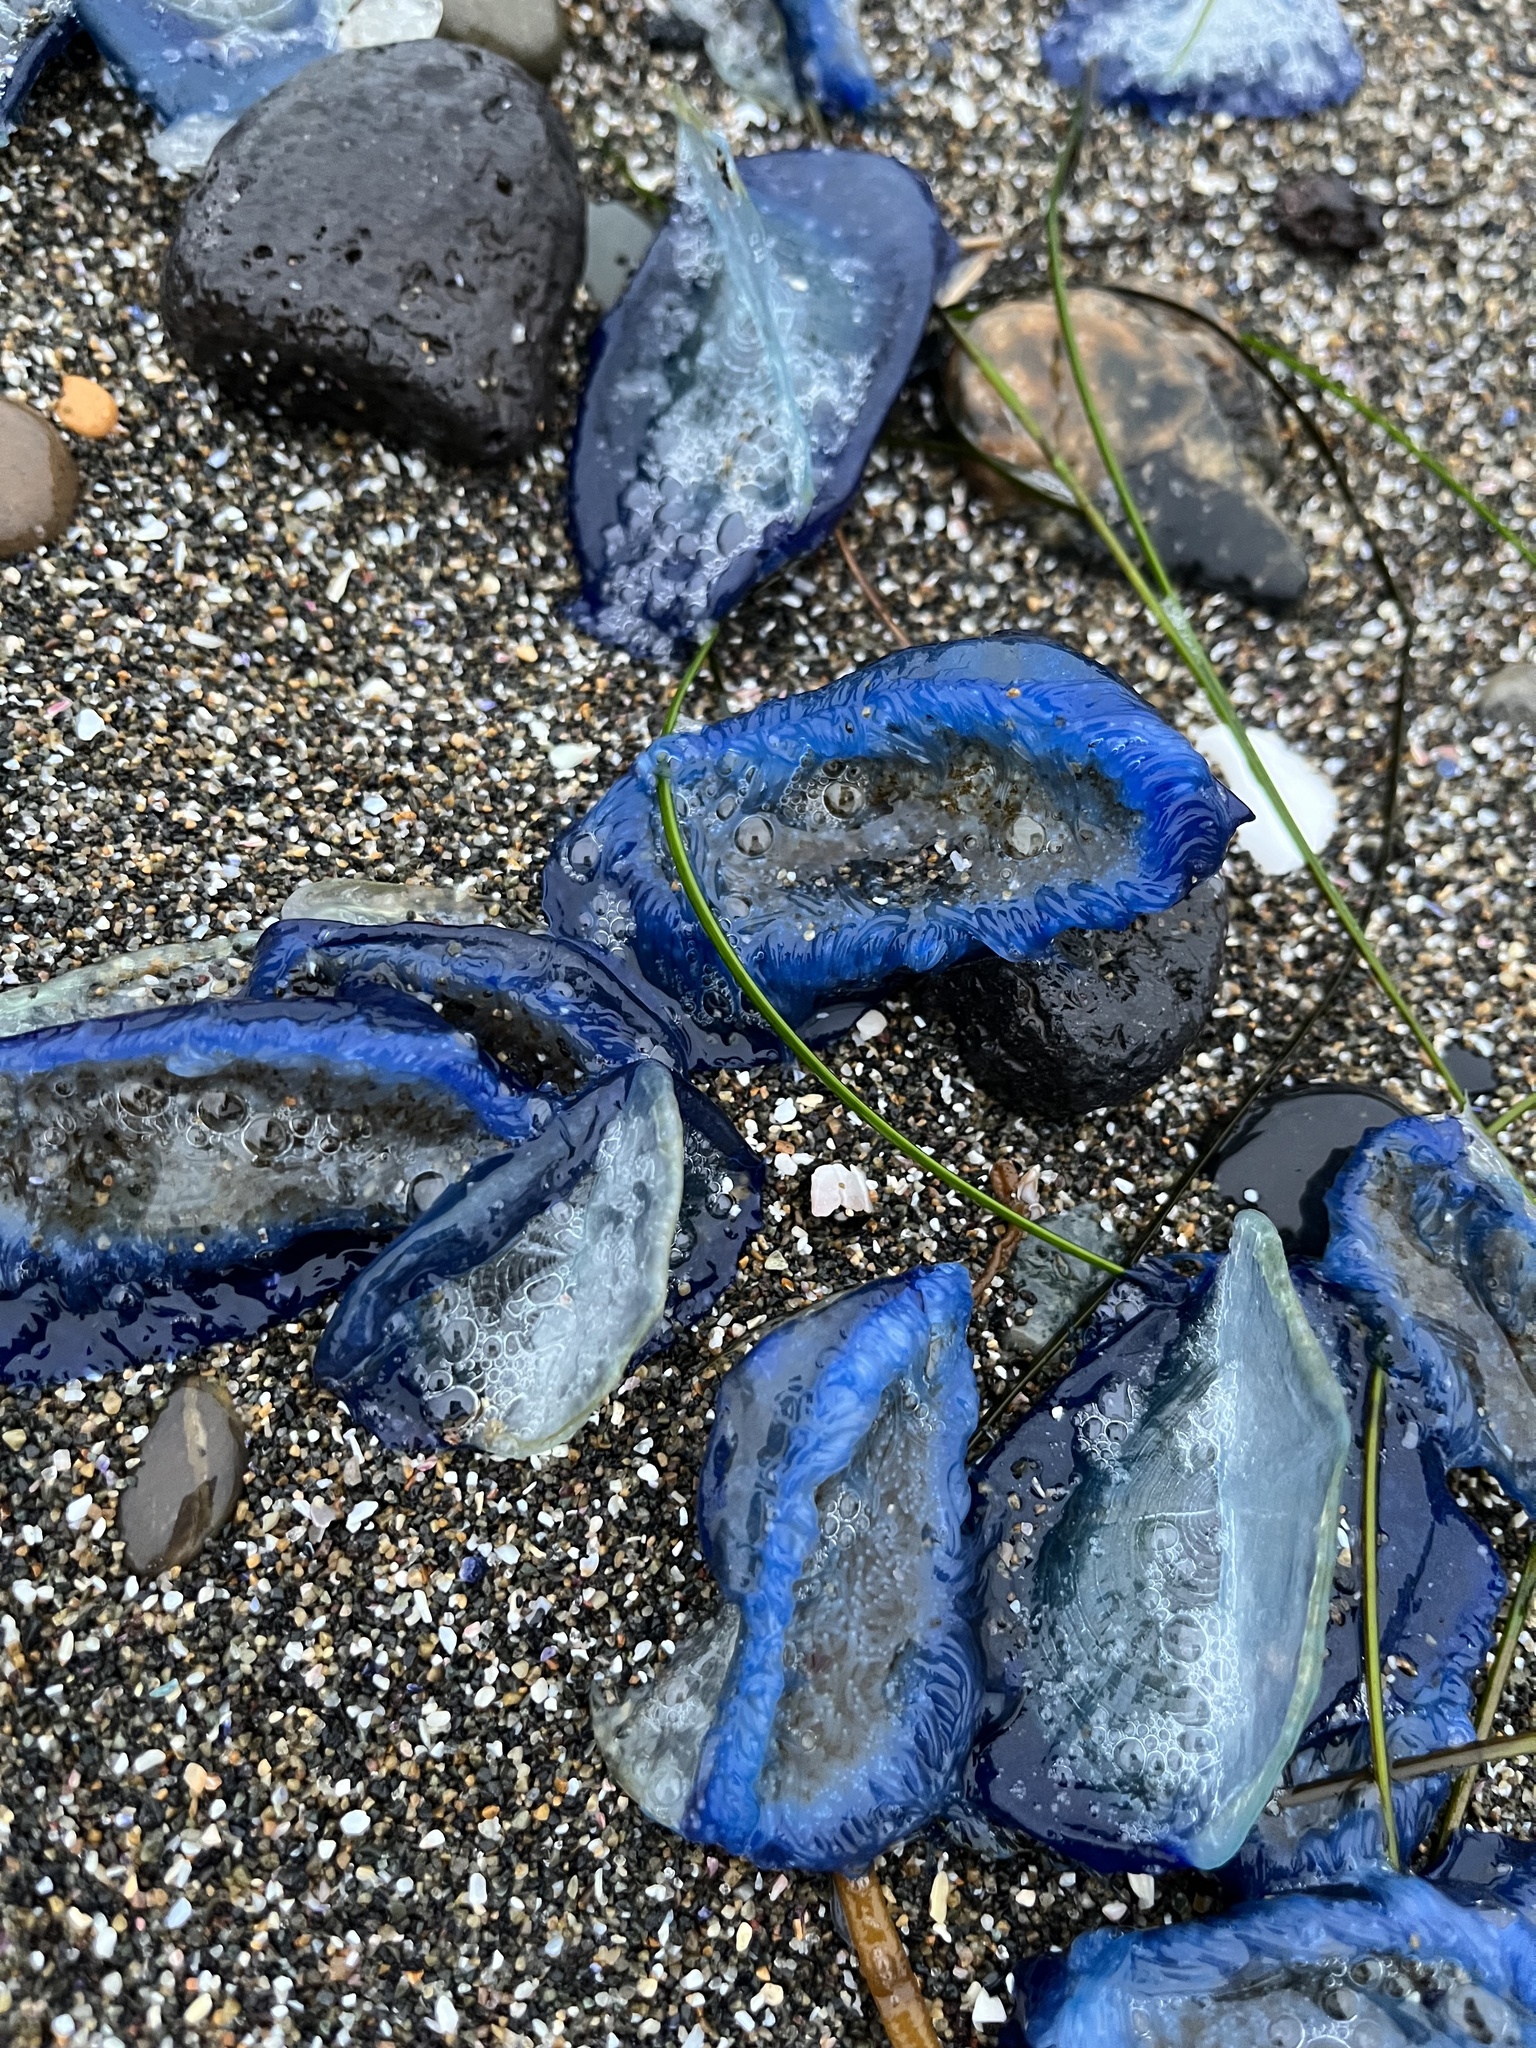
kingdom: Animalia
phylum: Cnidaria
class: Hydrozoa
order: Anthoathecata
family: Porpitidae
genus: Velella
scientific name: Velella velella
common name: By-the-wind-sailor
